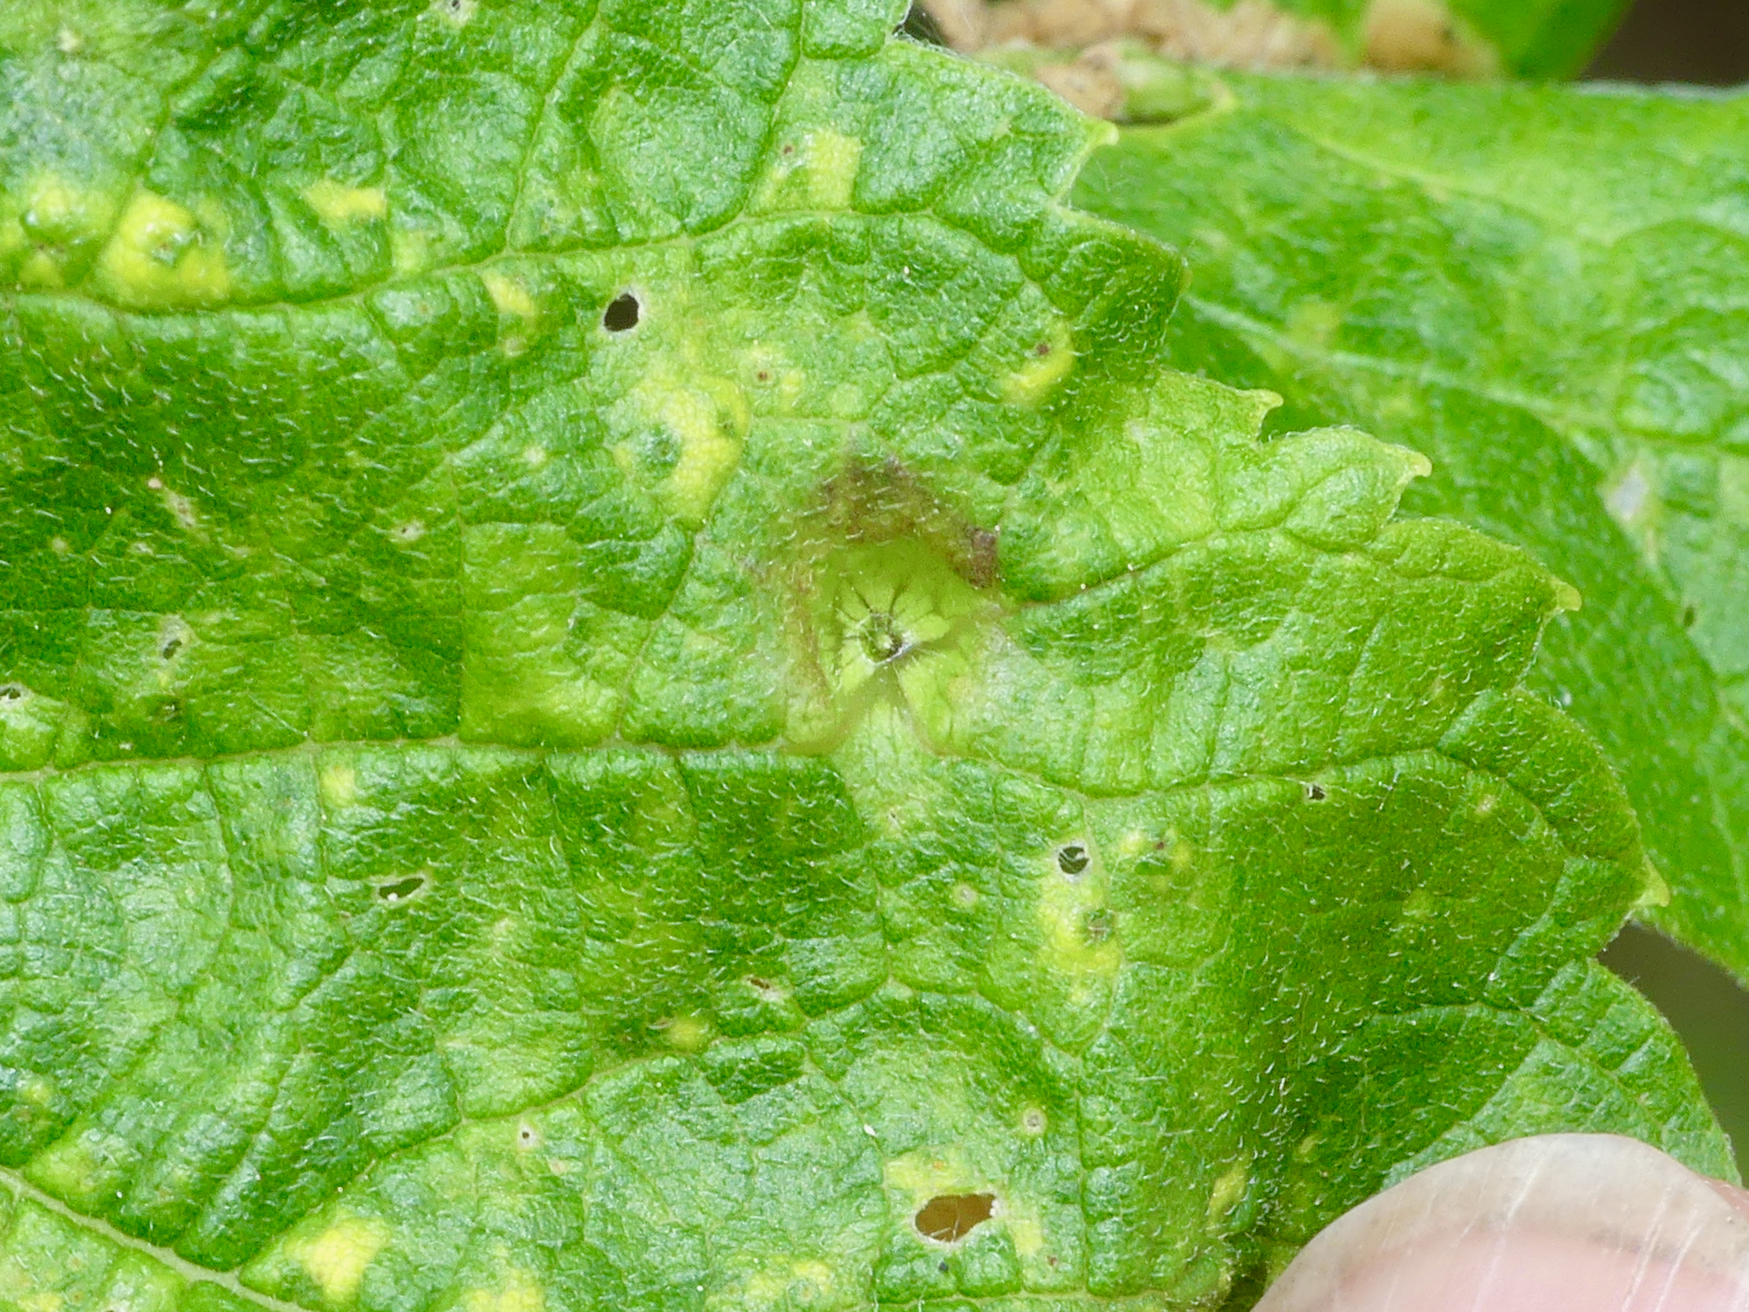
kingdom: Animalia
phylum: Arthropoda
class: Insecta
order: Hemiptera
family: Aphalaridae
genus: Pachypsylla
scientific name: Pachypsylla celtidismamma
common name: Hackberry nipplegall psyllid
